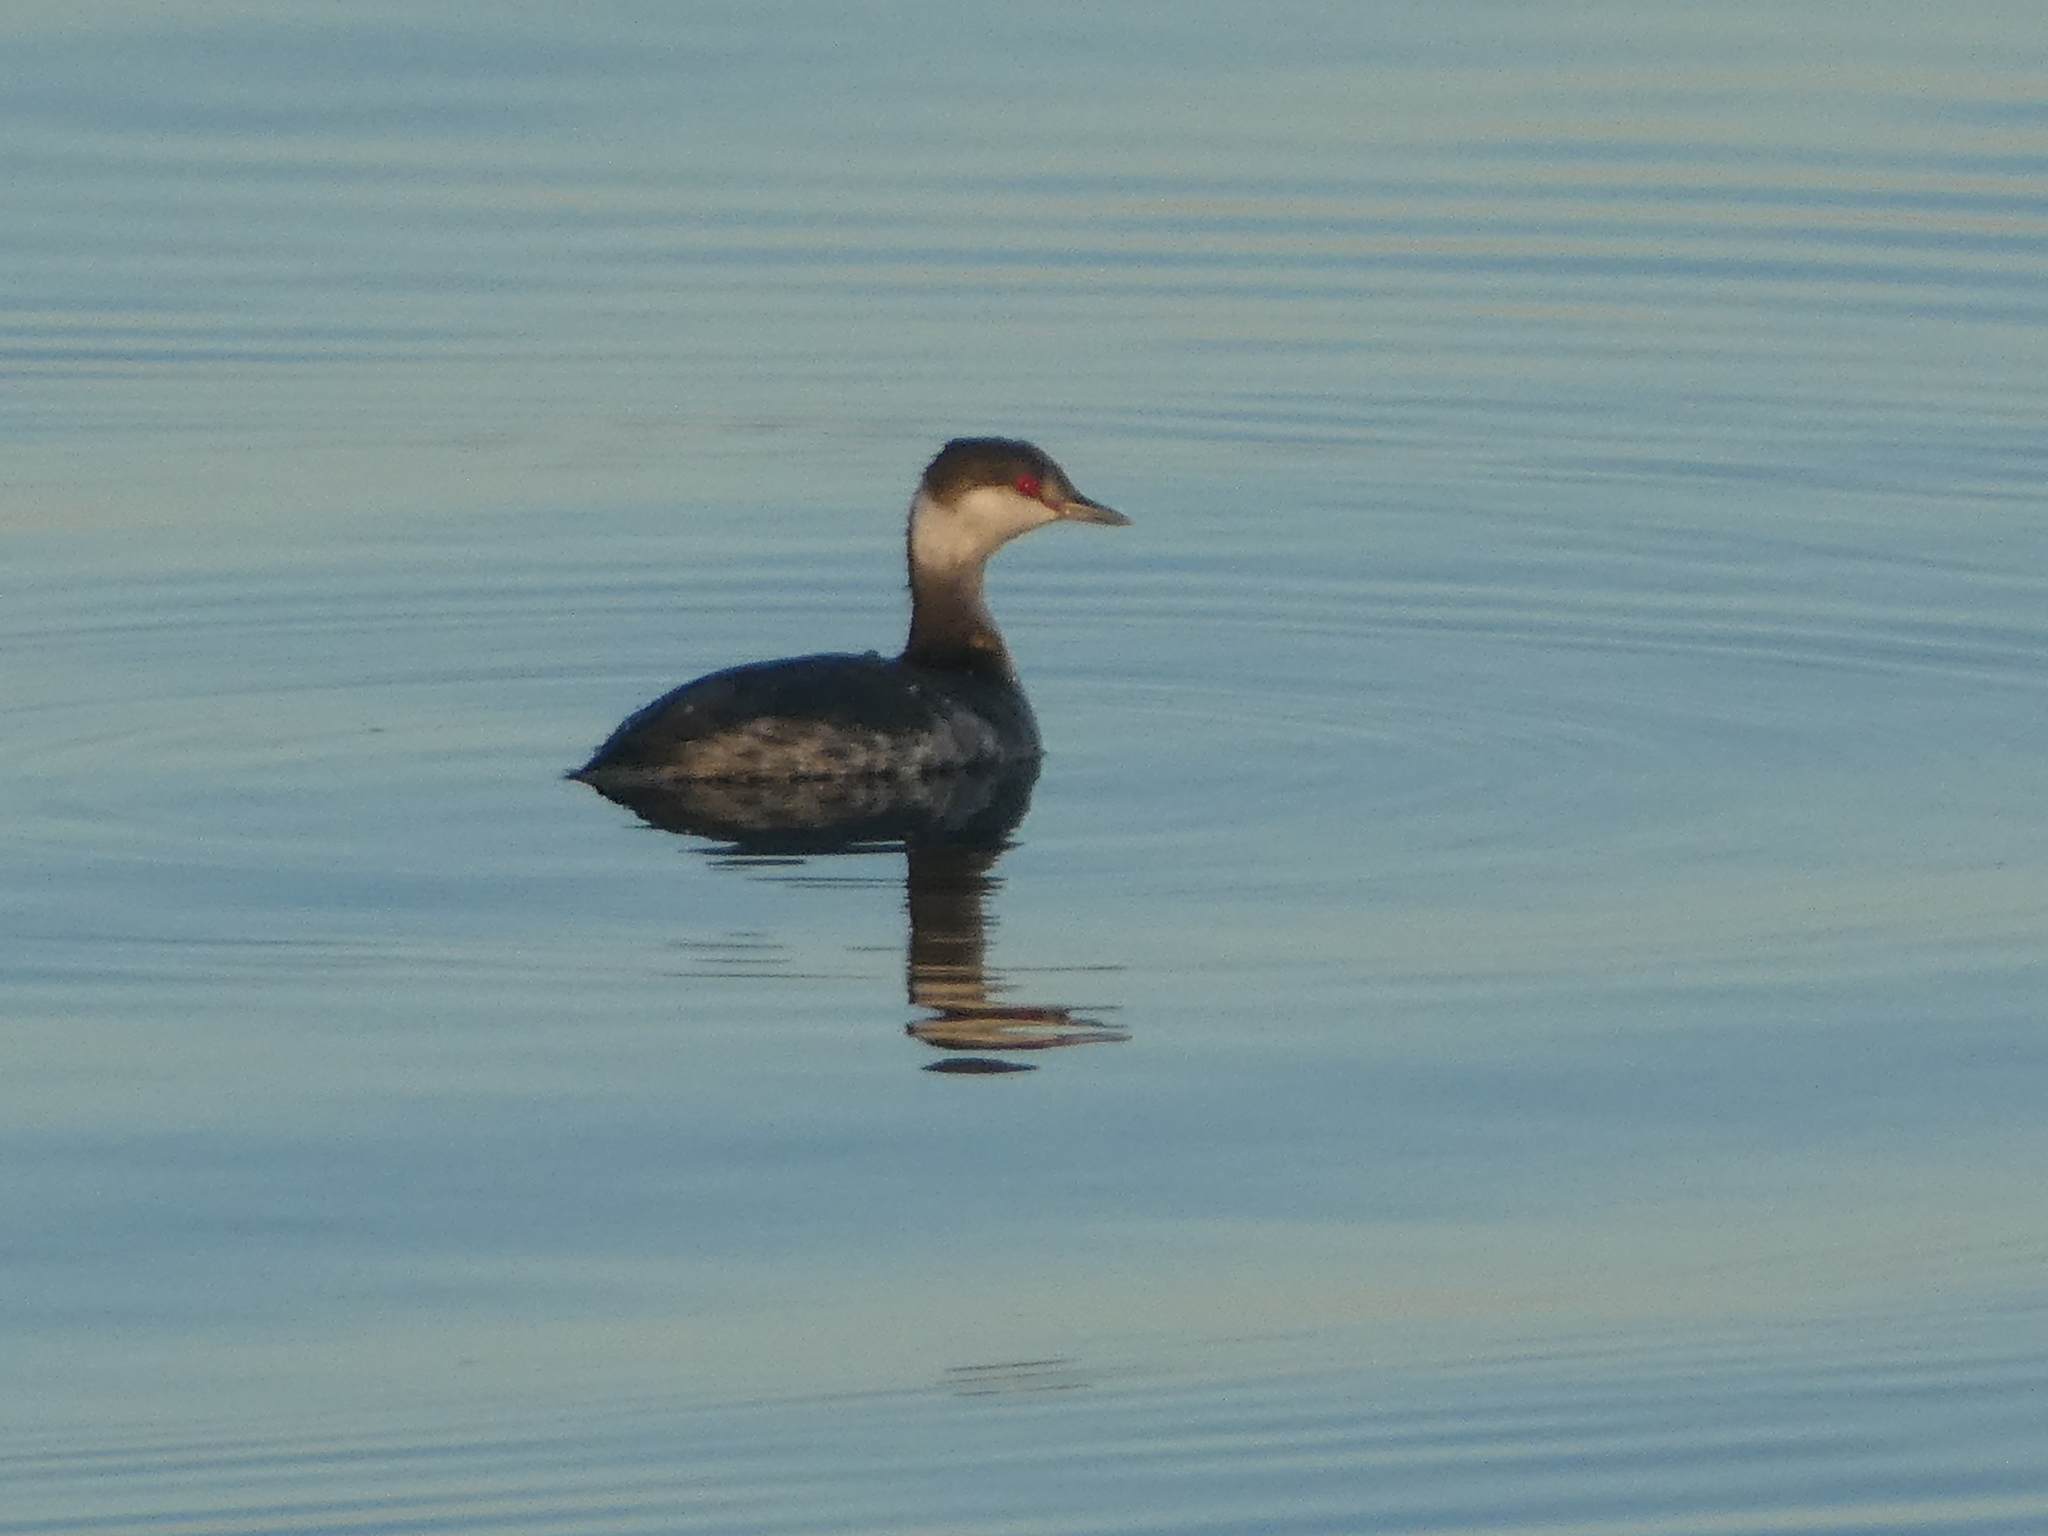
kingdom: Animalia
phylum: Chordata
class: Aves
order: Podicipediformes
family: Podicipedidae
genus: Podiceps
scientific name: Podiceps auritus
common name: Horned grebe
